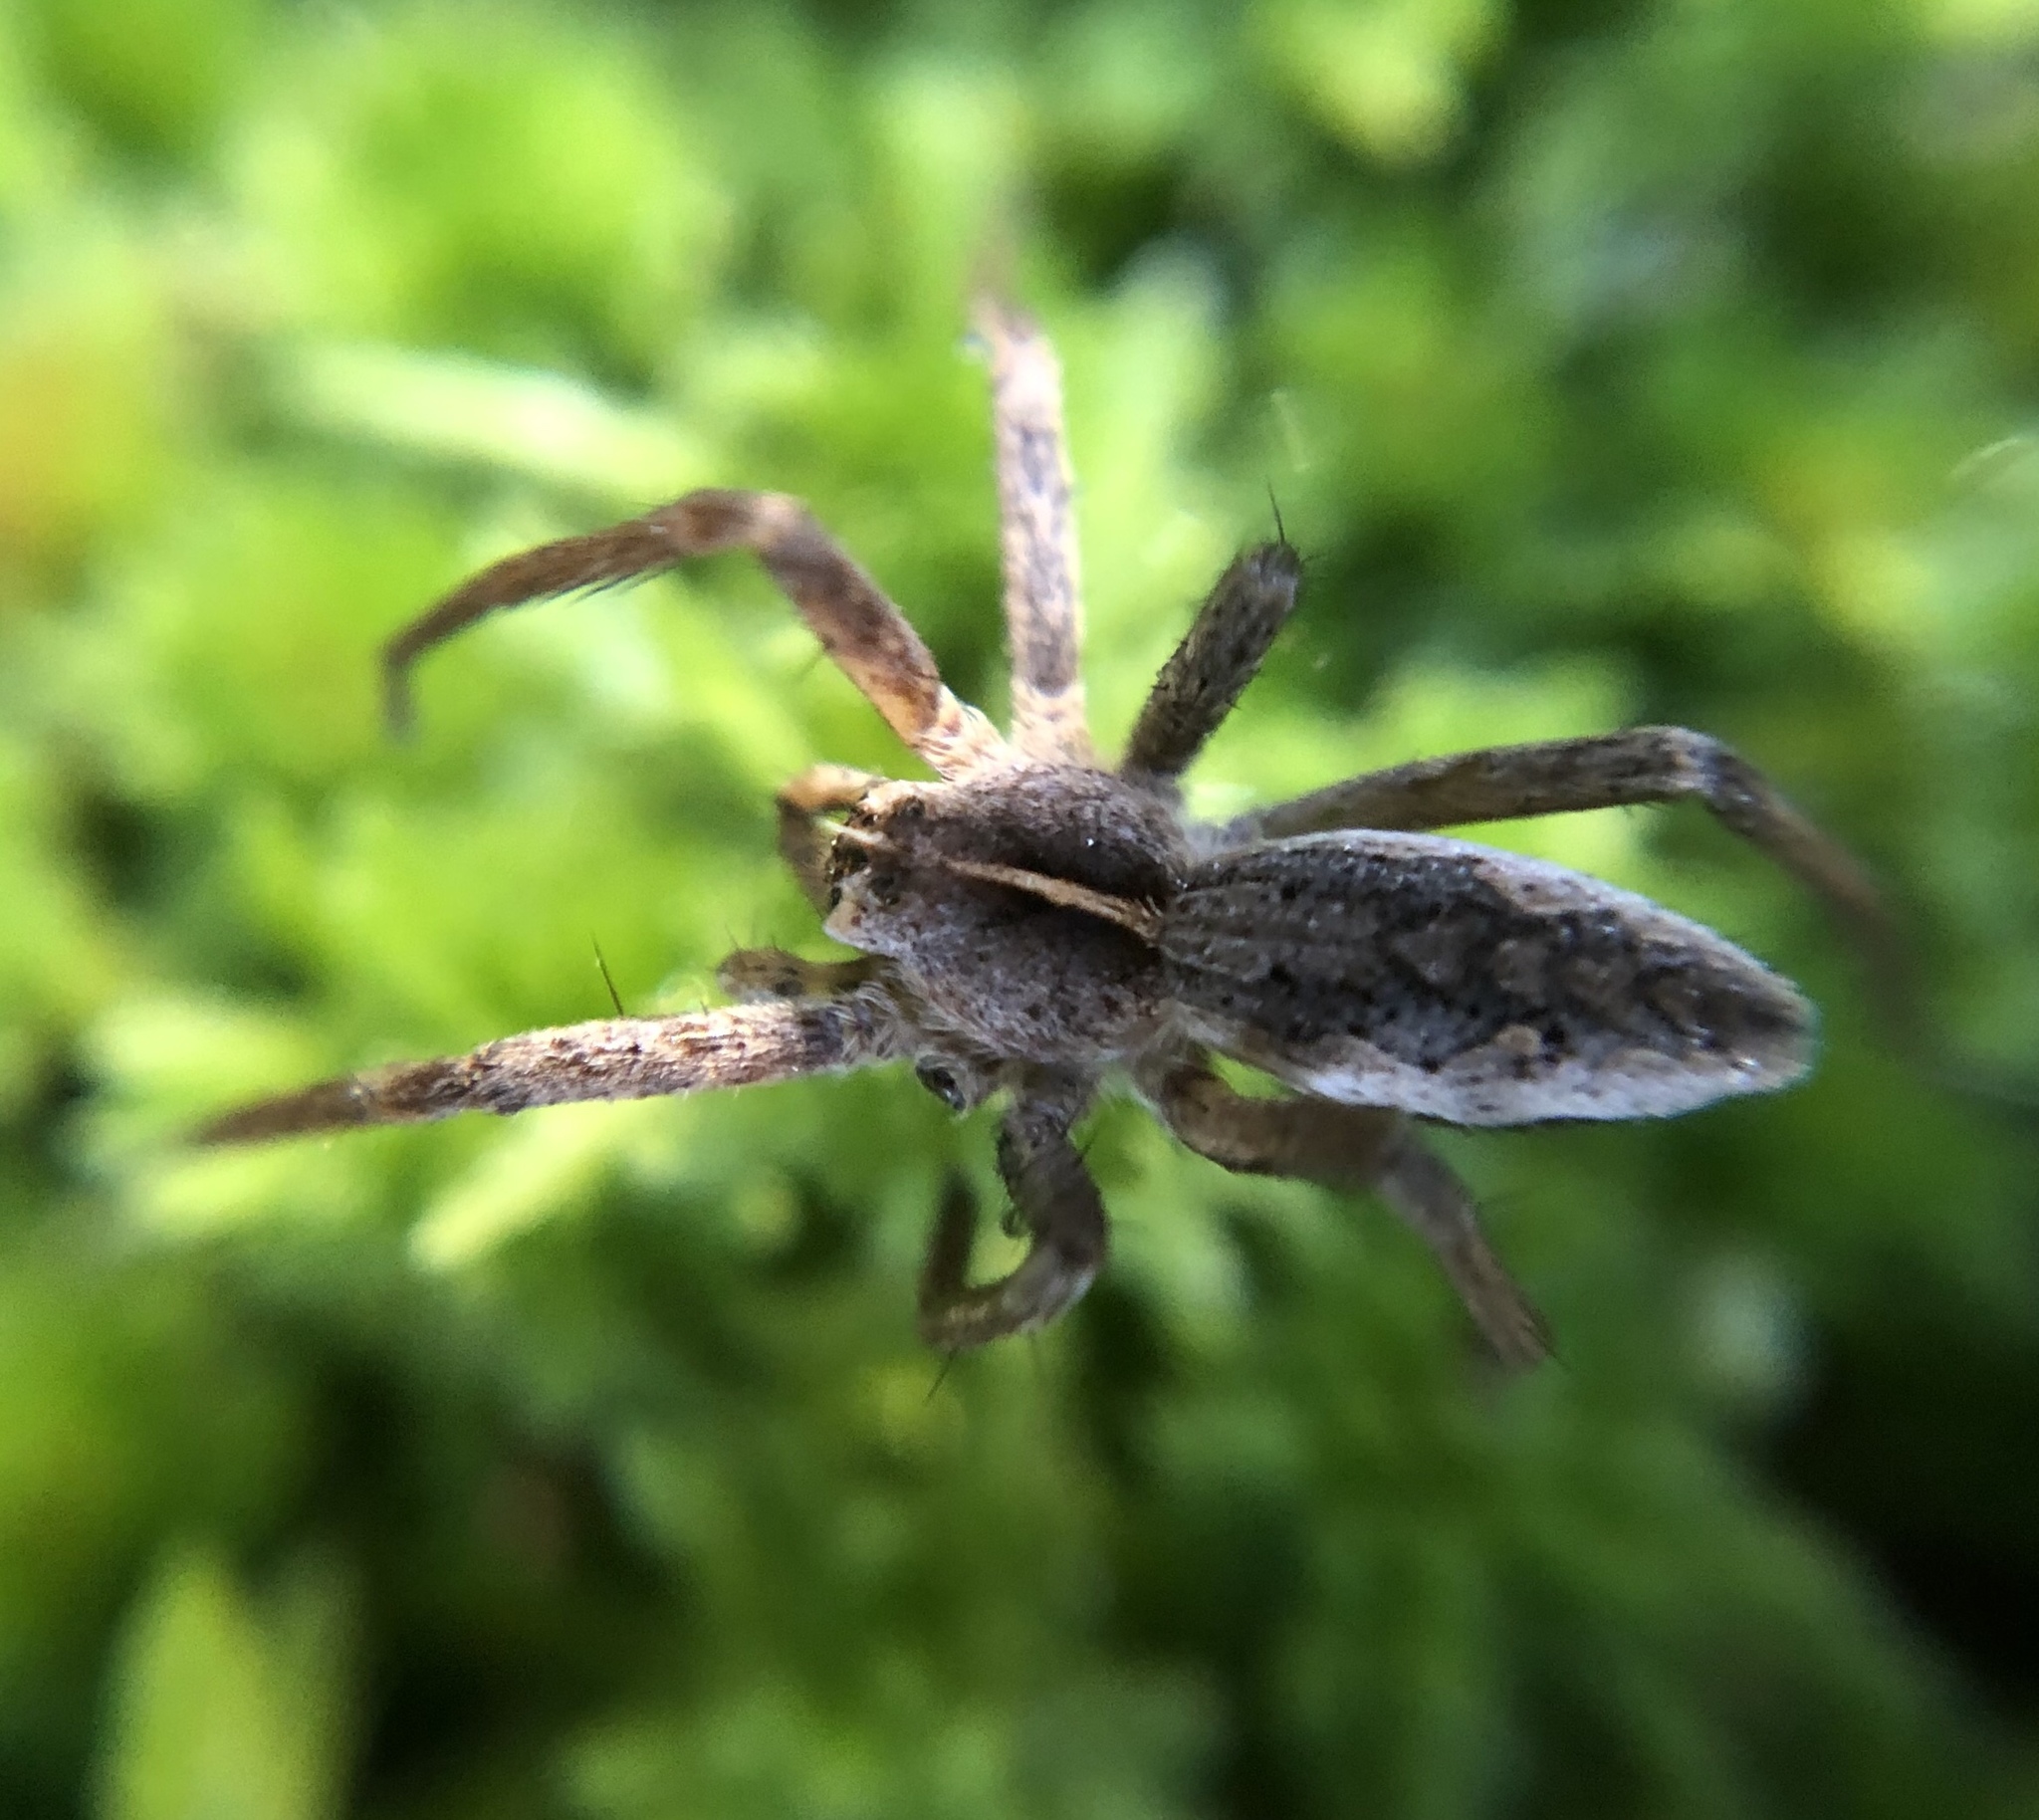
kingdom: Animalia
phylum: Arthropoda
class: Arachnida
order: Araneae
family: Pisauridae
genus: Pisaura
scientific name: Pisaura mirabilis
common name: Tent spider
